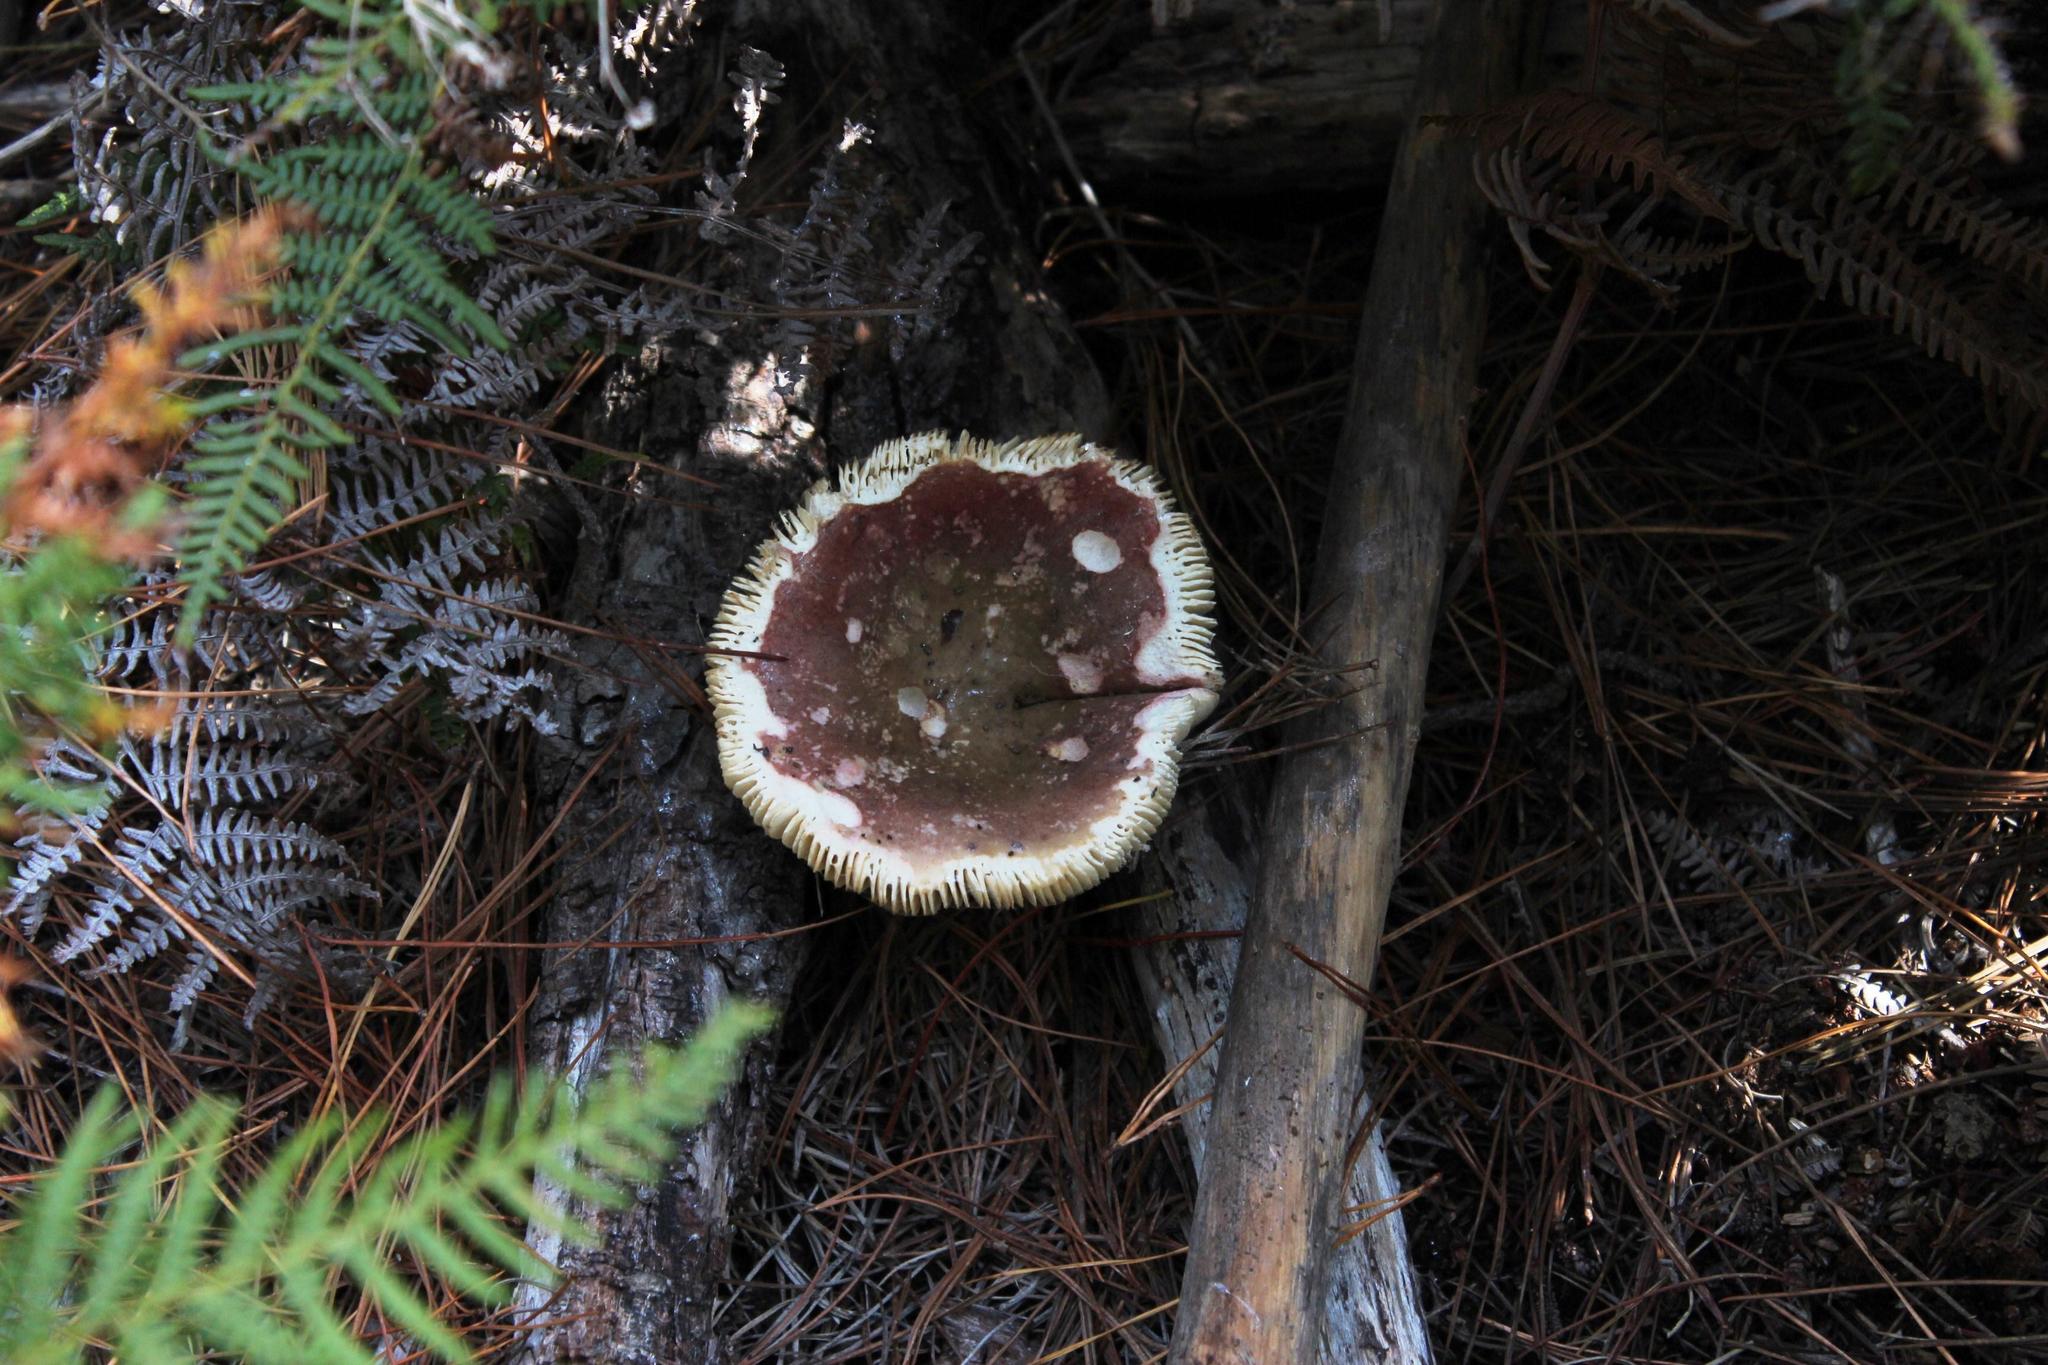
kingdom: Fungi
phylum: Basidiomycota
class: Agaricomycetes
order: Russulales
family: Russulaceae
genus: Russula
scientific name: Russula sardonia
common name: Primrose brittlegill
